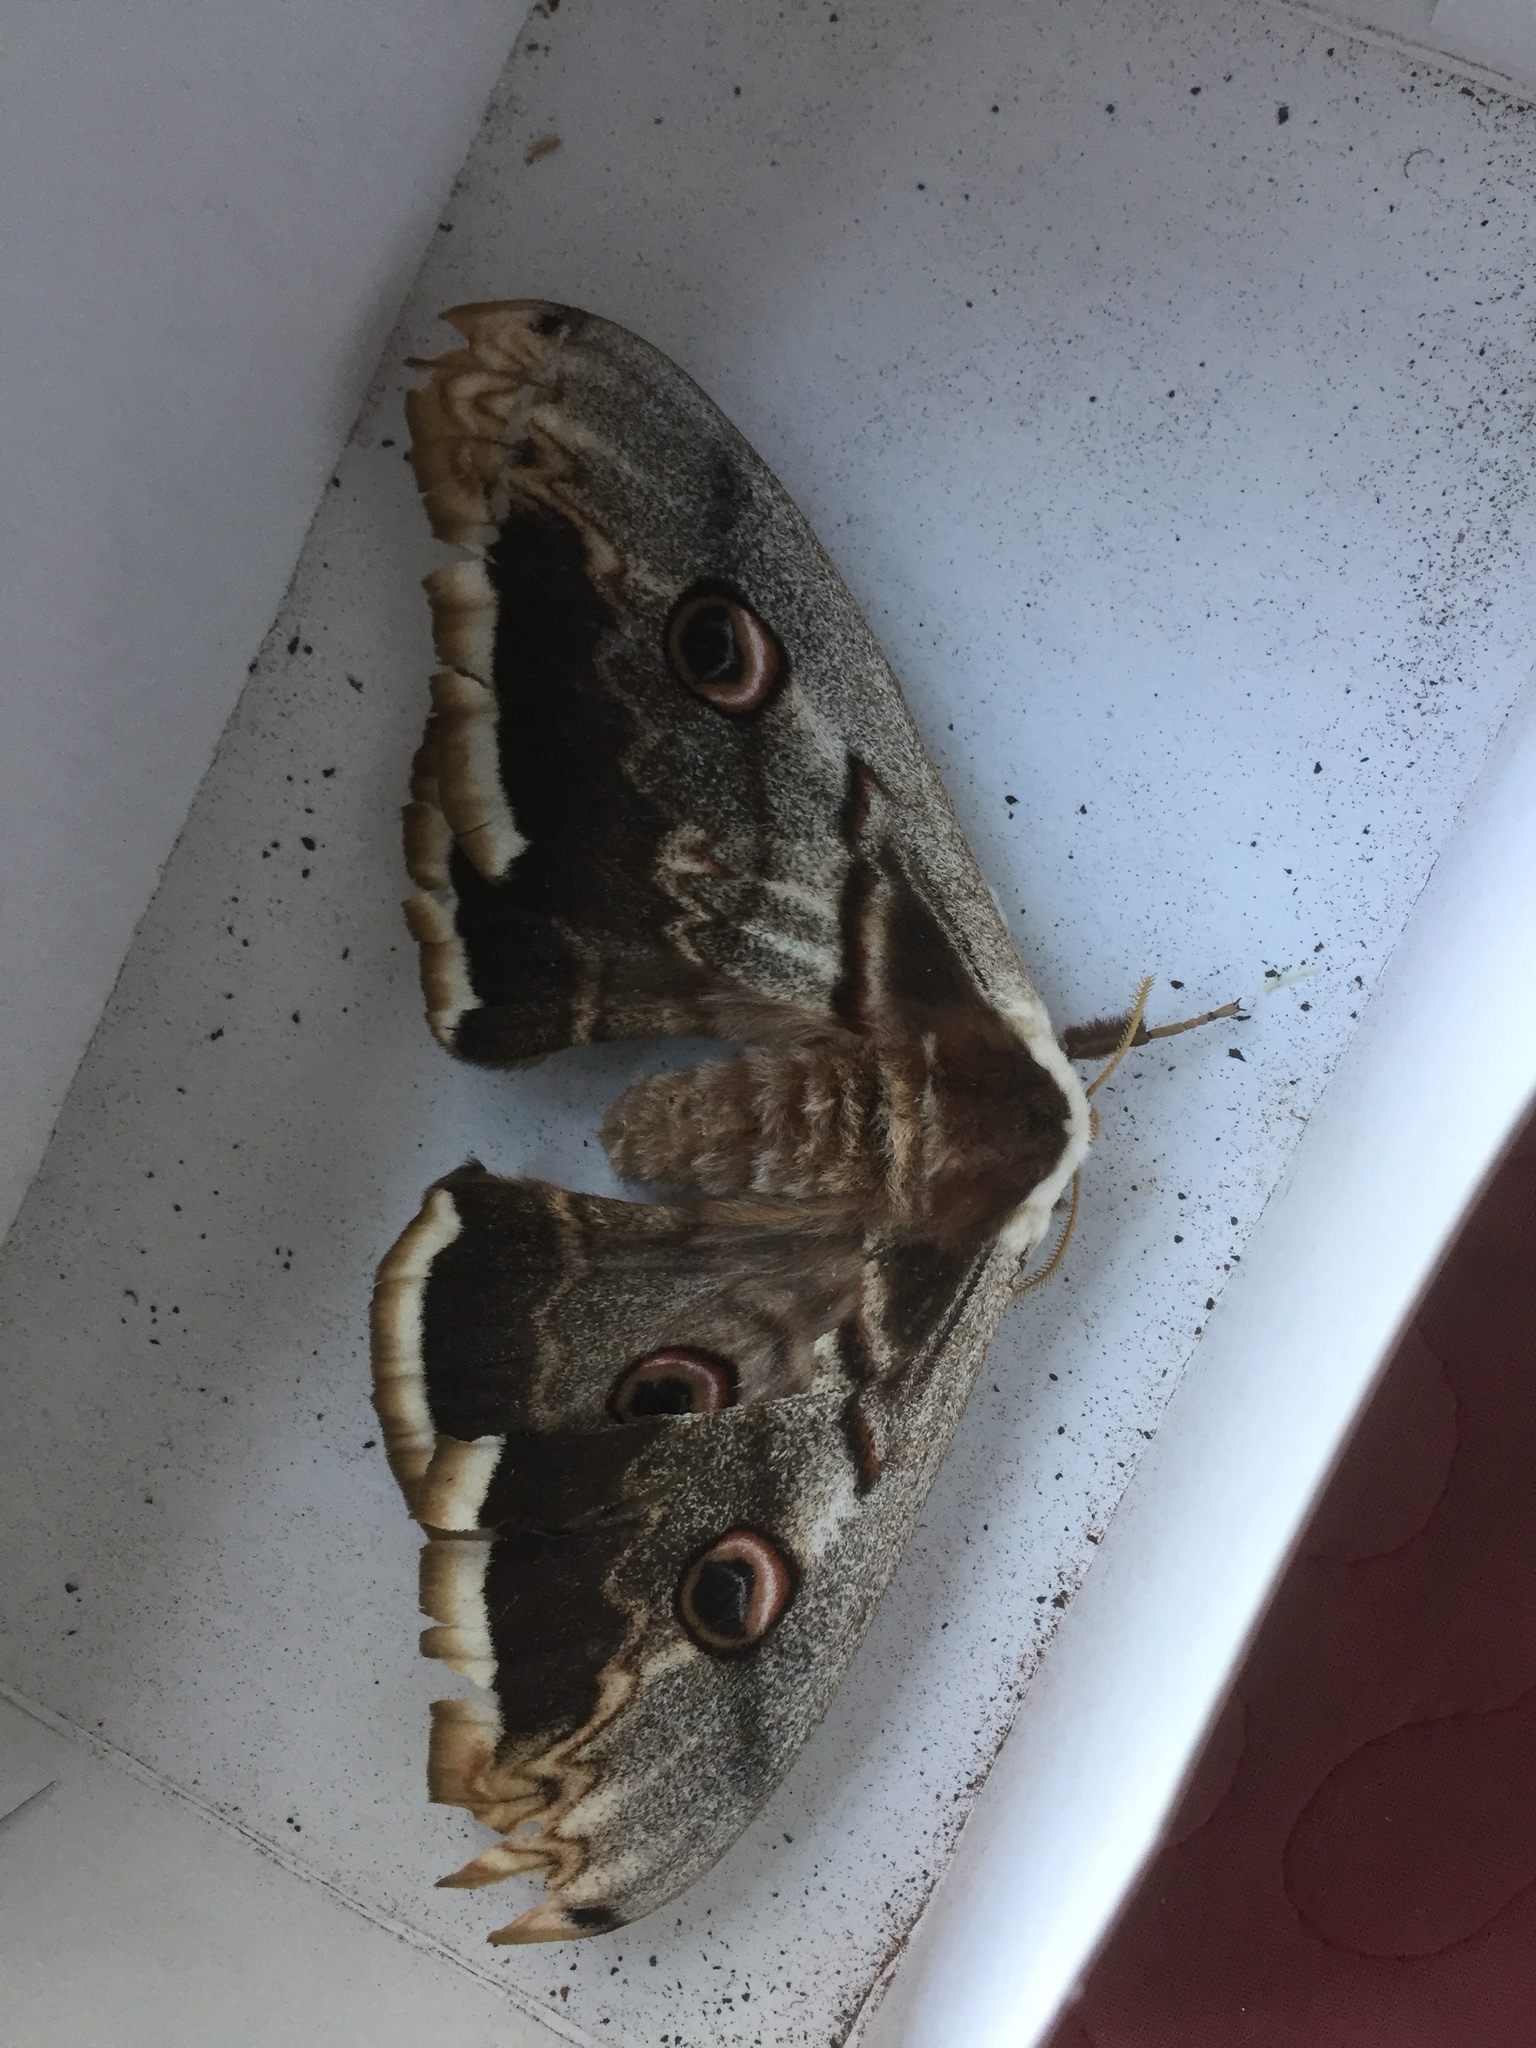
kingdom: Animalia
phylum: Arthropoda
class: Insecta
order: Lepidoptera
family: Saturniidae
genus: Saturnia
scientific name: Saturnia pyri
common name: Great peacock moth
